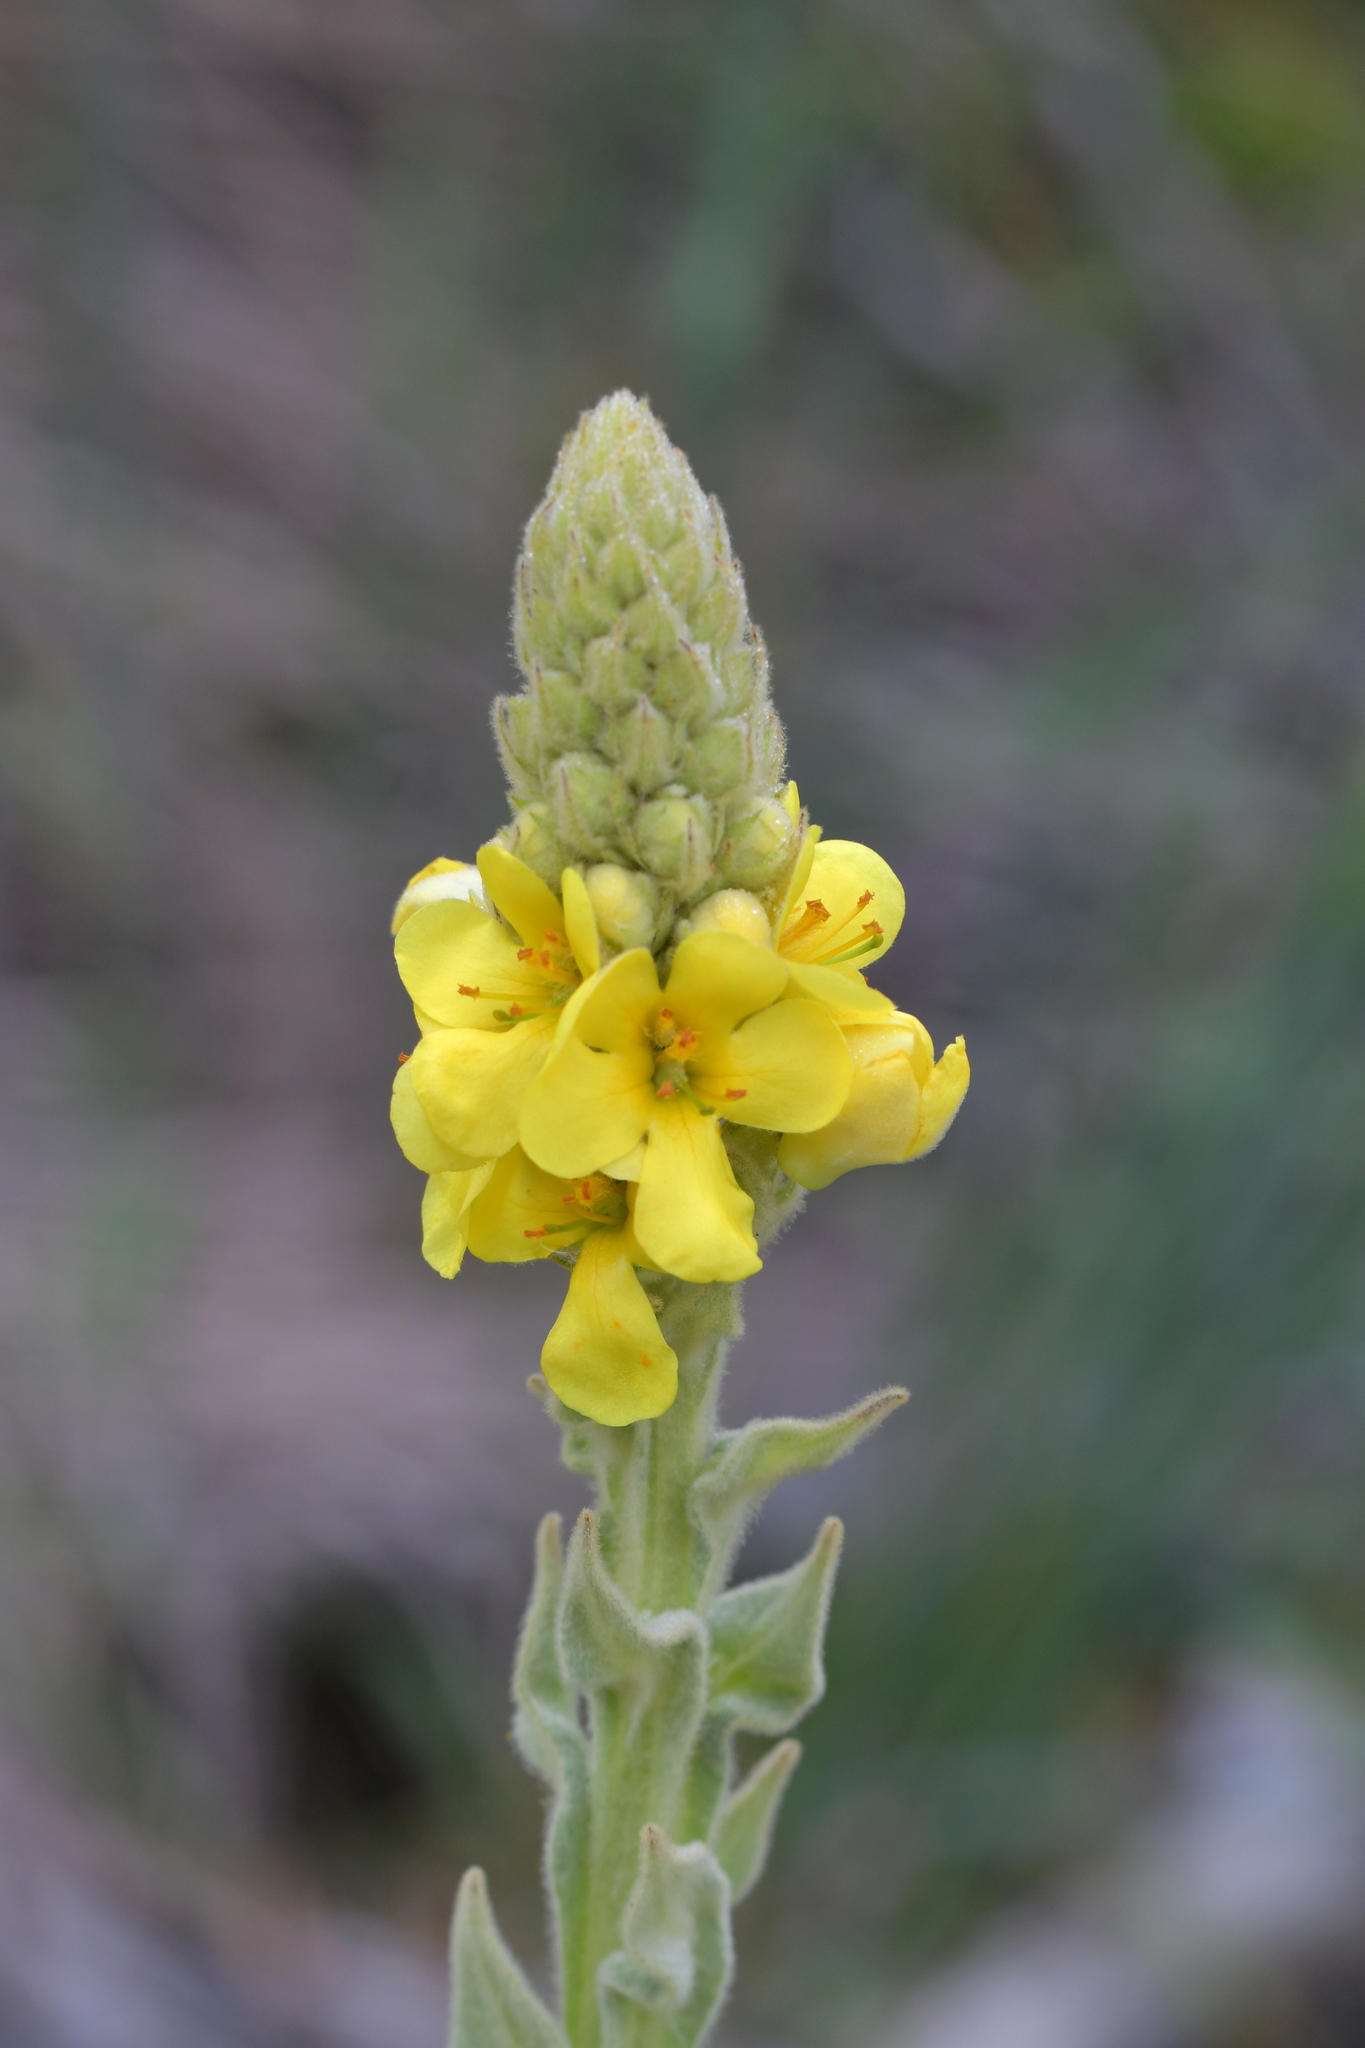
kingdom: Plantae
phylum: Tracheophyta
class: Magnoliopsida
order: Lamiales
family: Scrophulariaceae
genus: Verbascum
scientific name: Verbascum thapsus
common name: Common mullein
